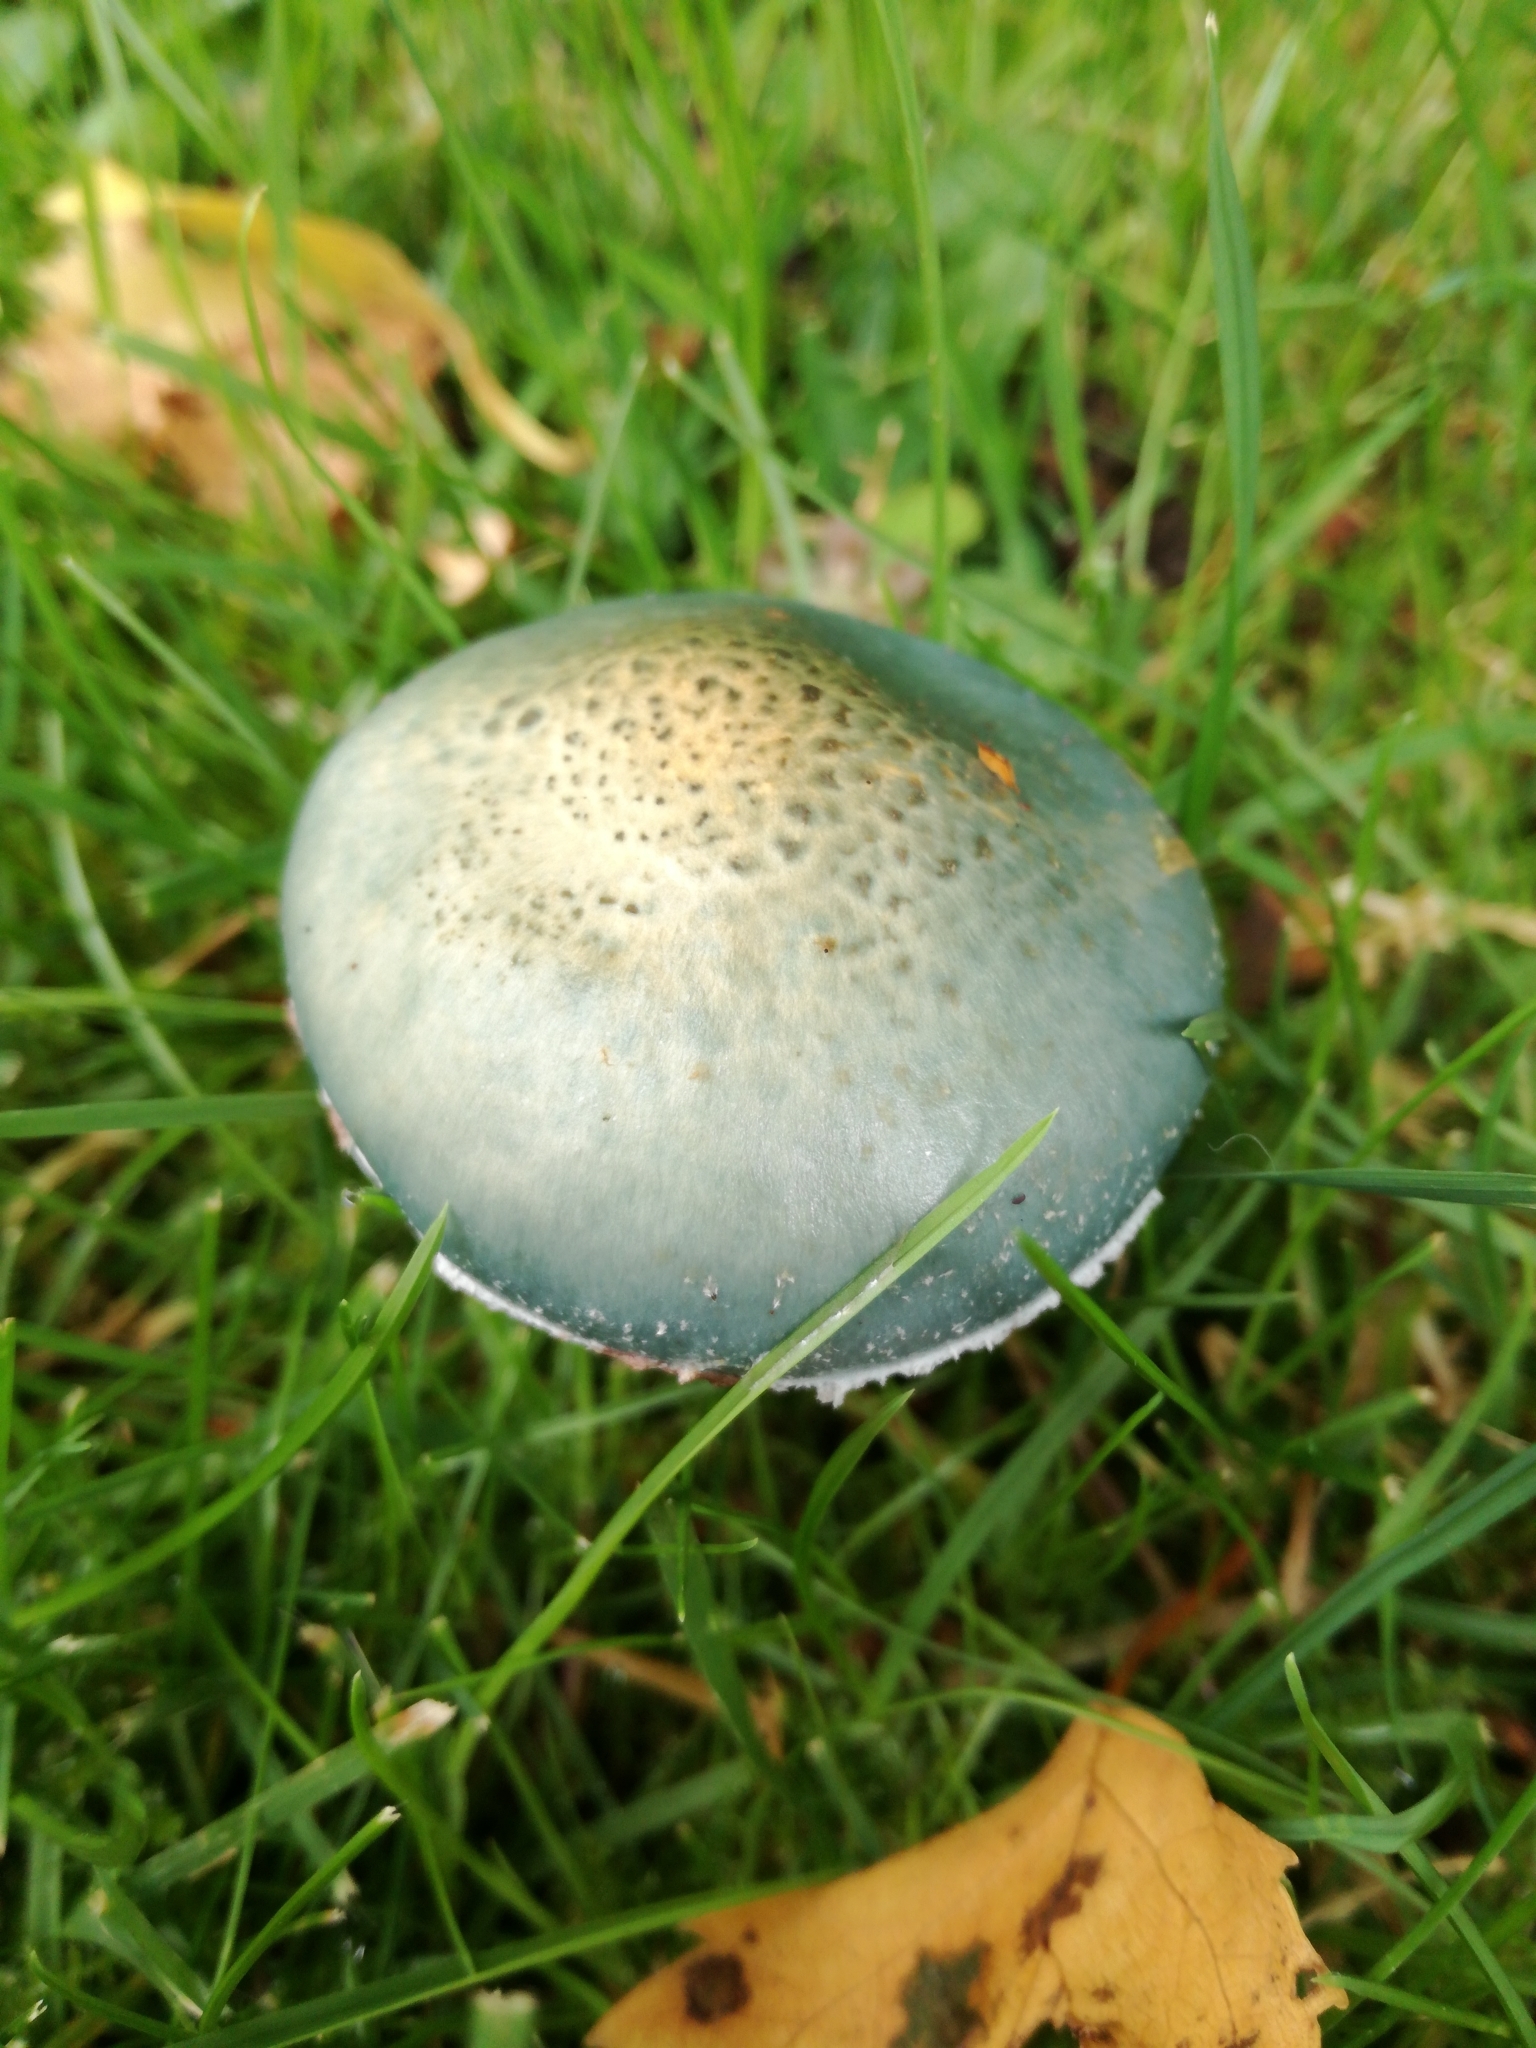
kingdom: Fungi
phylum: Basidiomycota
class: Agaricomycetes
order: Agaricales
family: Strophariaceae
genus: Stropharia
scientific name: Stropharia aeruginosa
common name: Verdigris roundhead
